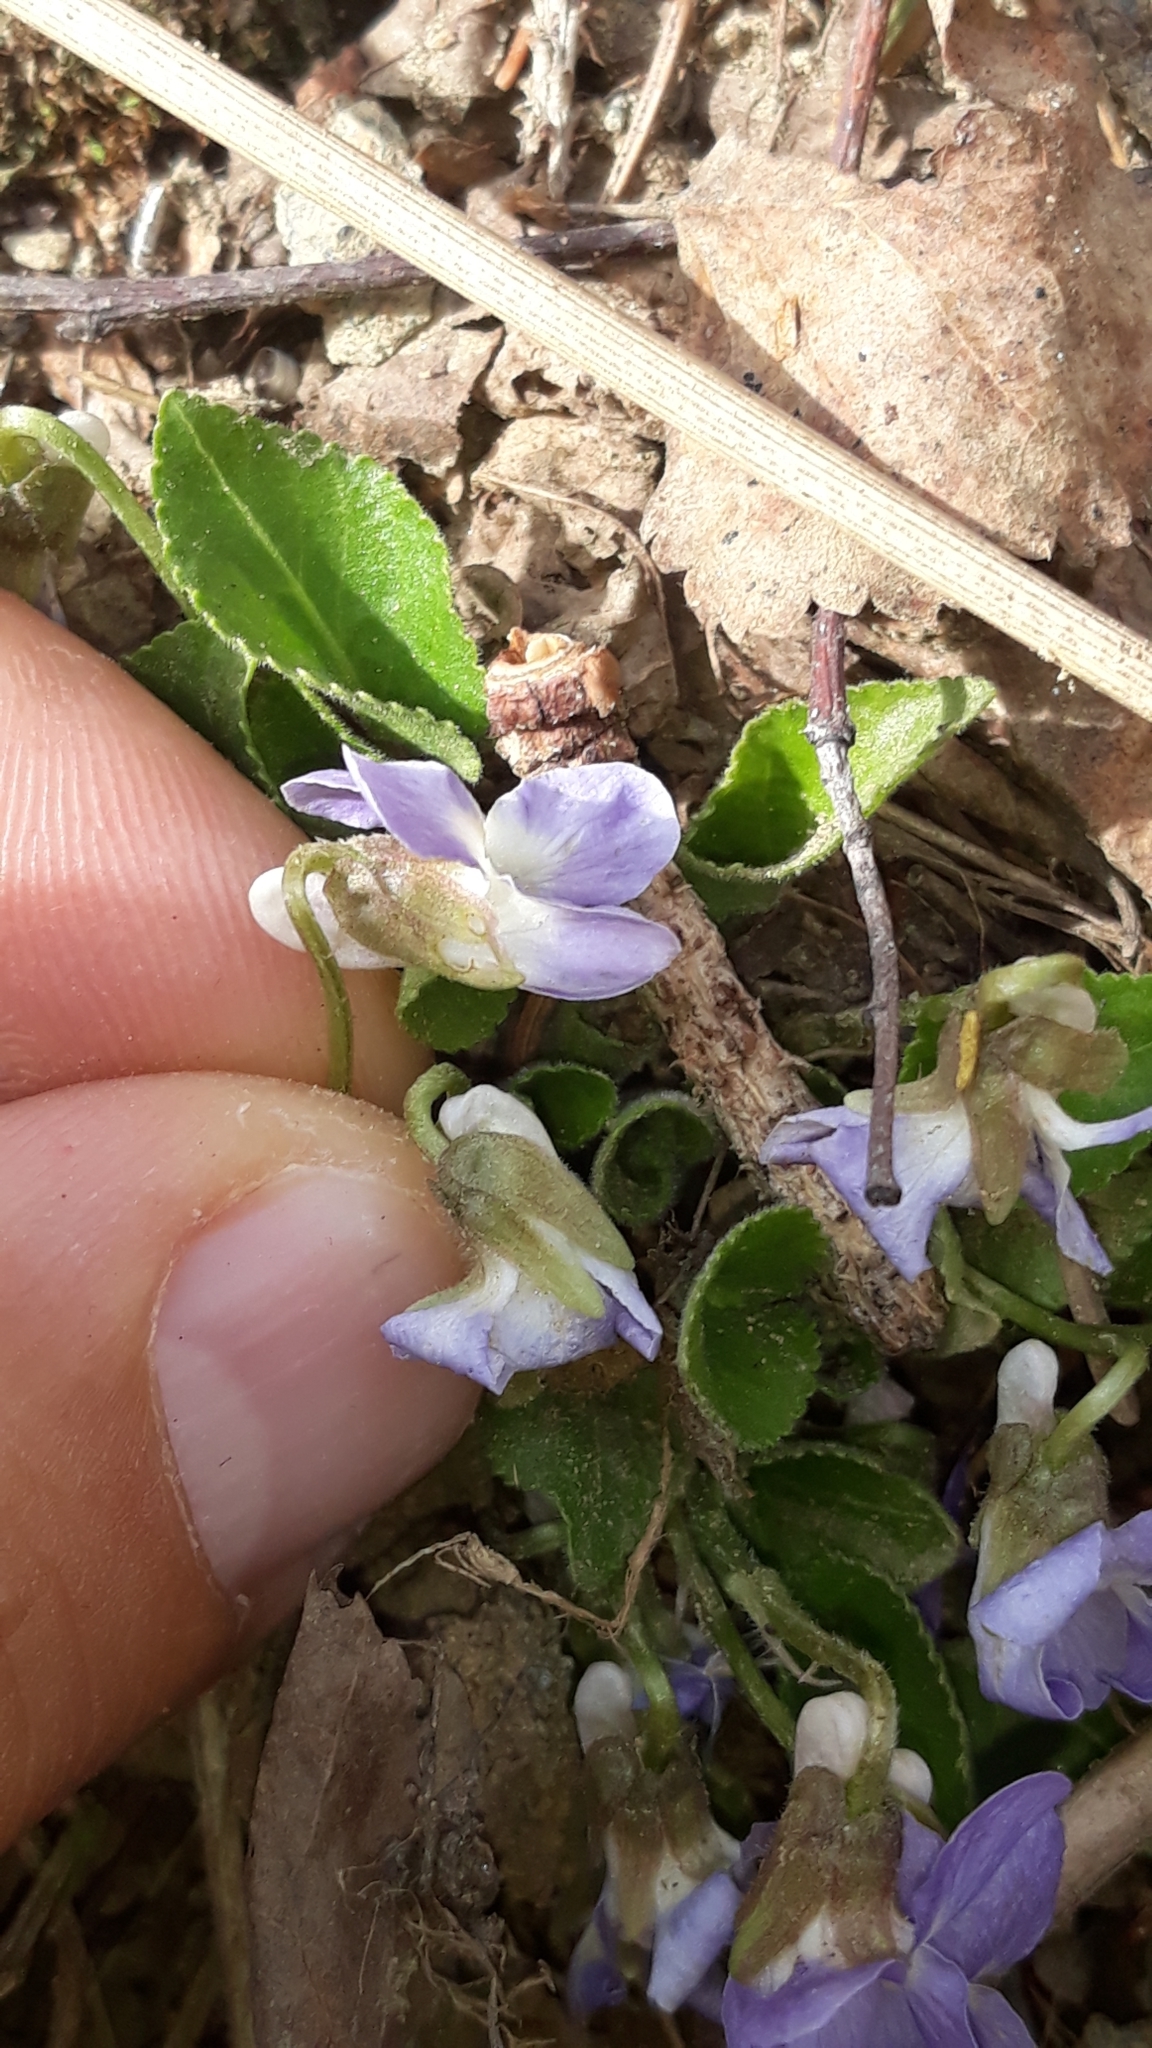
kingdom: Plantae
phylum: Tracheophyta
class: Magnoliopsida
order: Malpighiales
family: Violaceae
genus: Viola
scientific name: Viola canina
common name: Heath dog-violet
